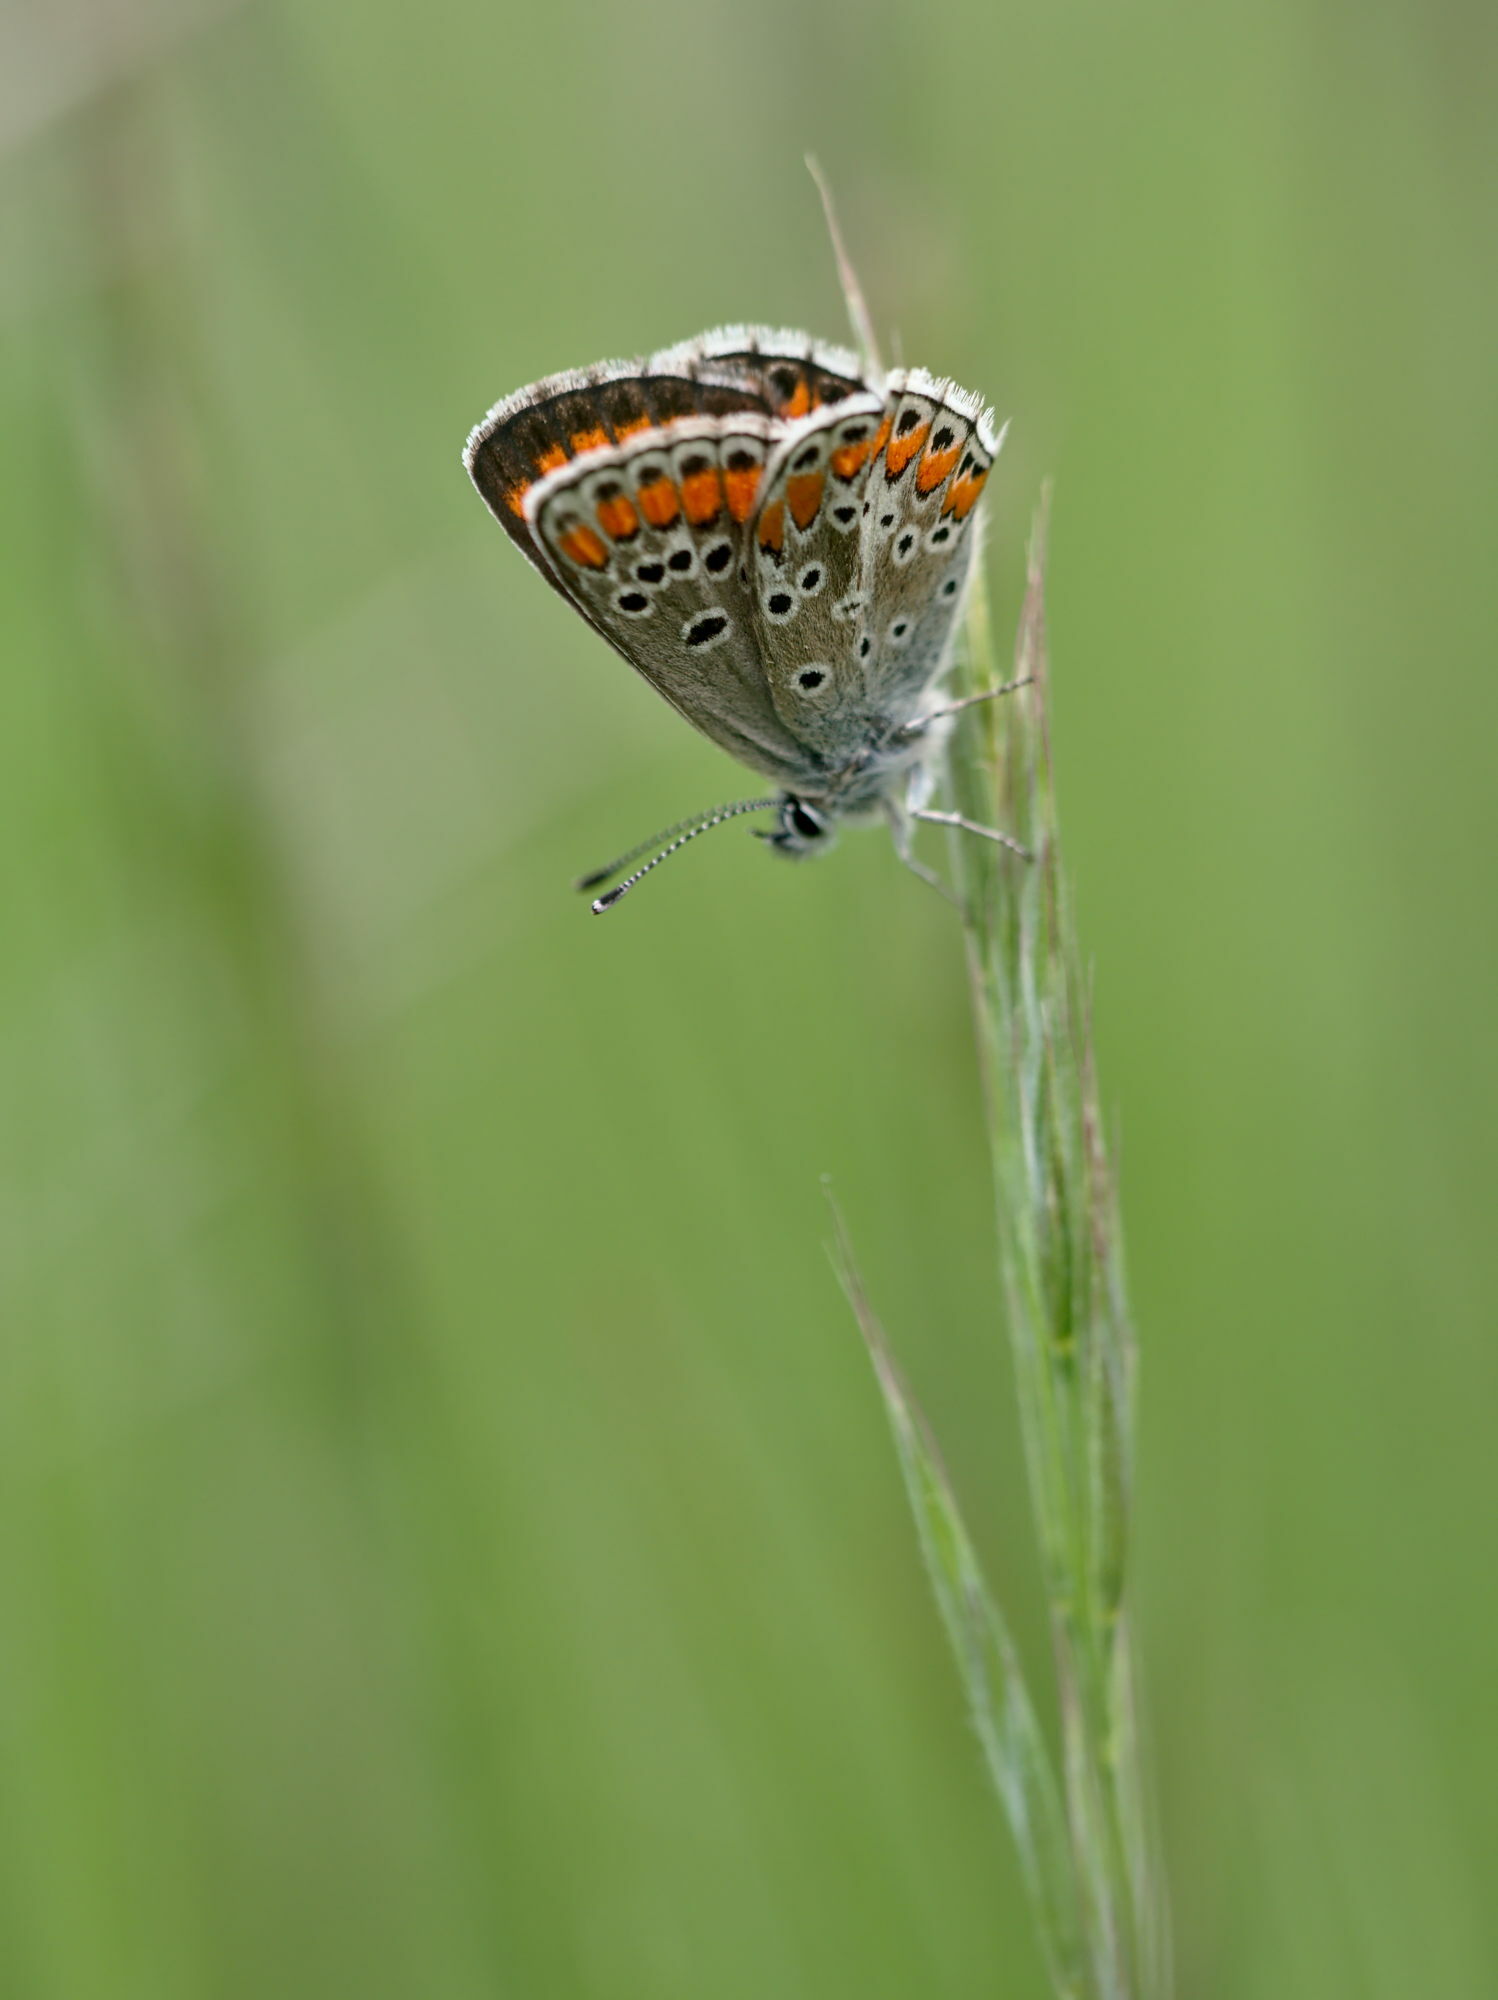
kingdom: Animalia
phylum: Arthropoda
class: Insecta
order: Lepidoptera
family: Lycaenidae
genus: Aricia
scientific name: Aricia agestis
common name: Brown argus
